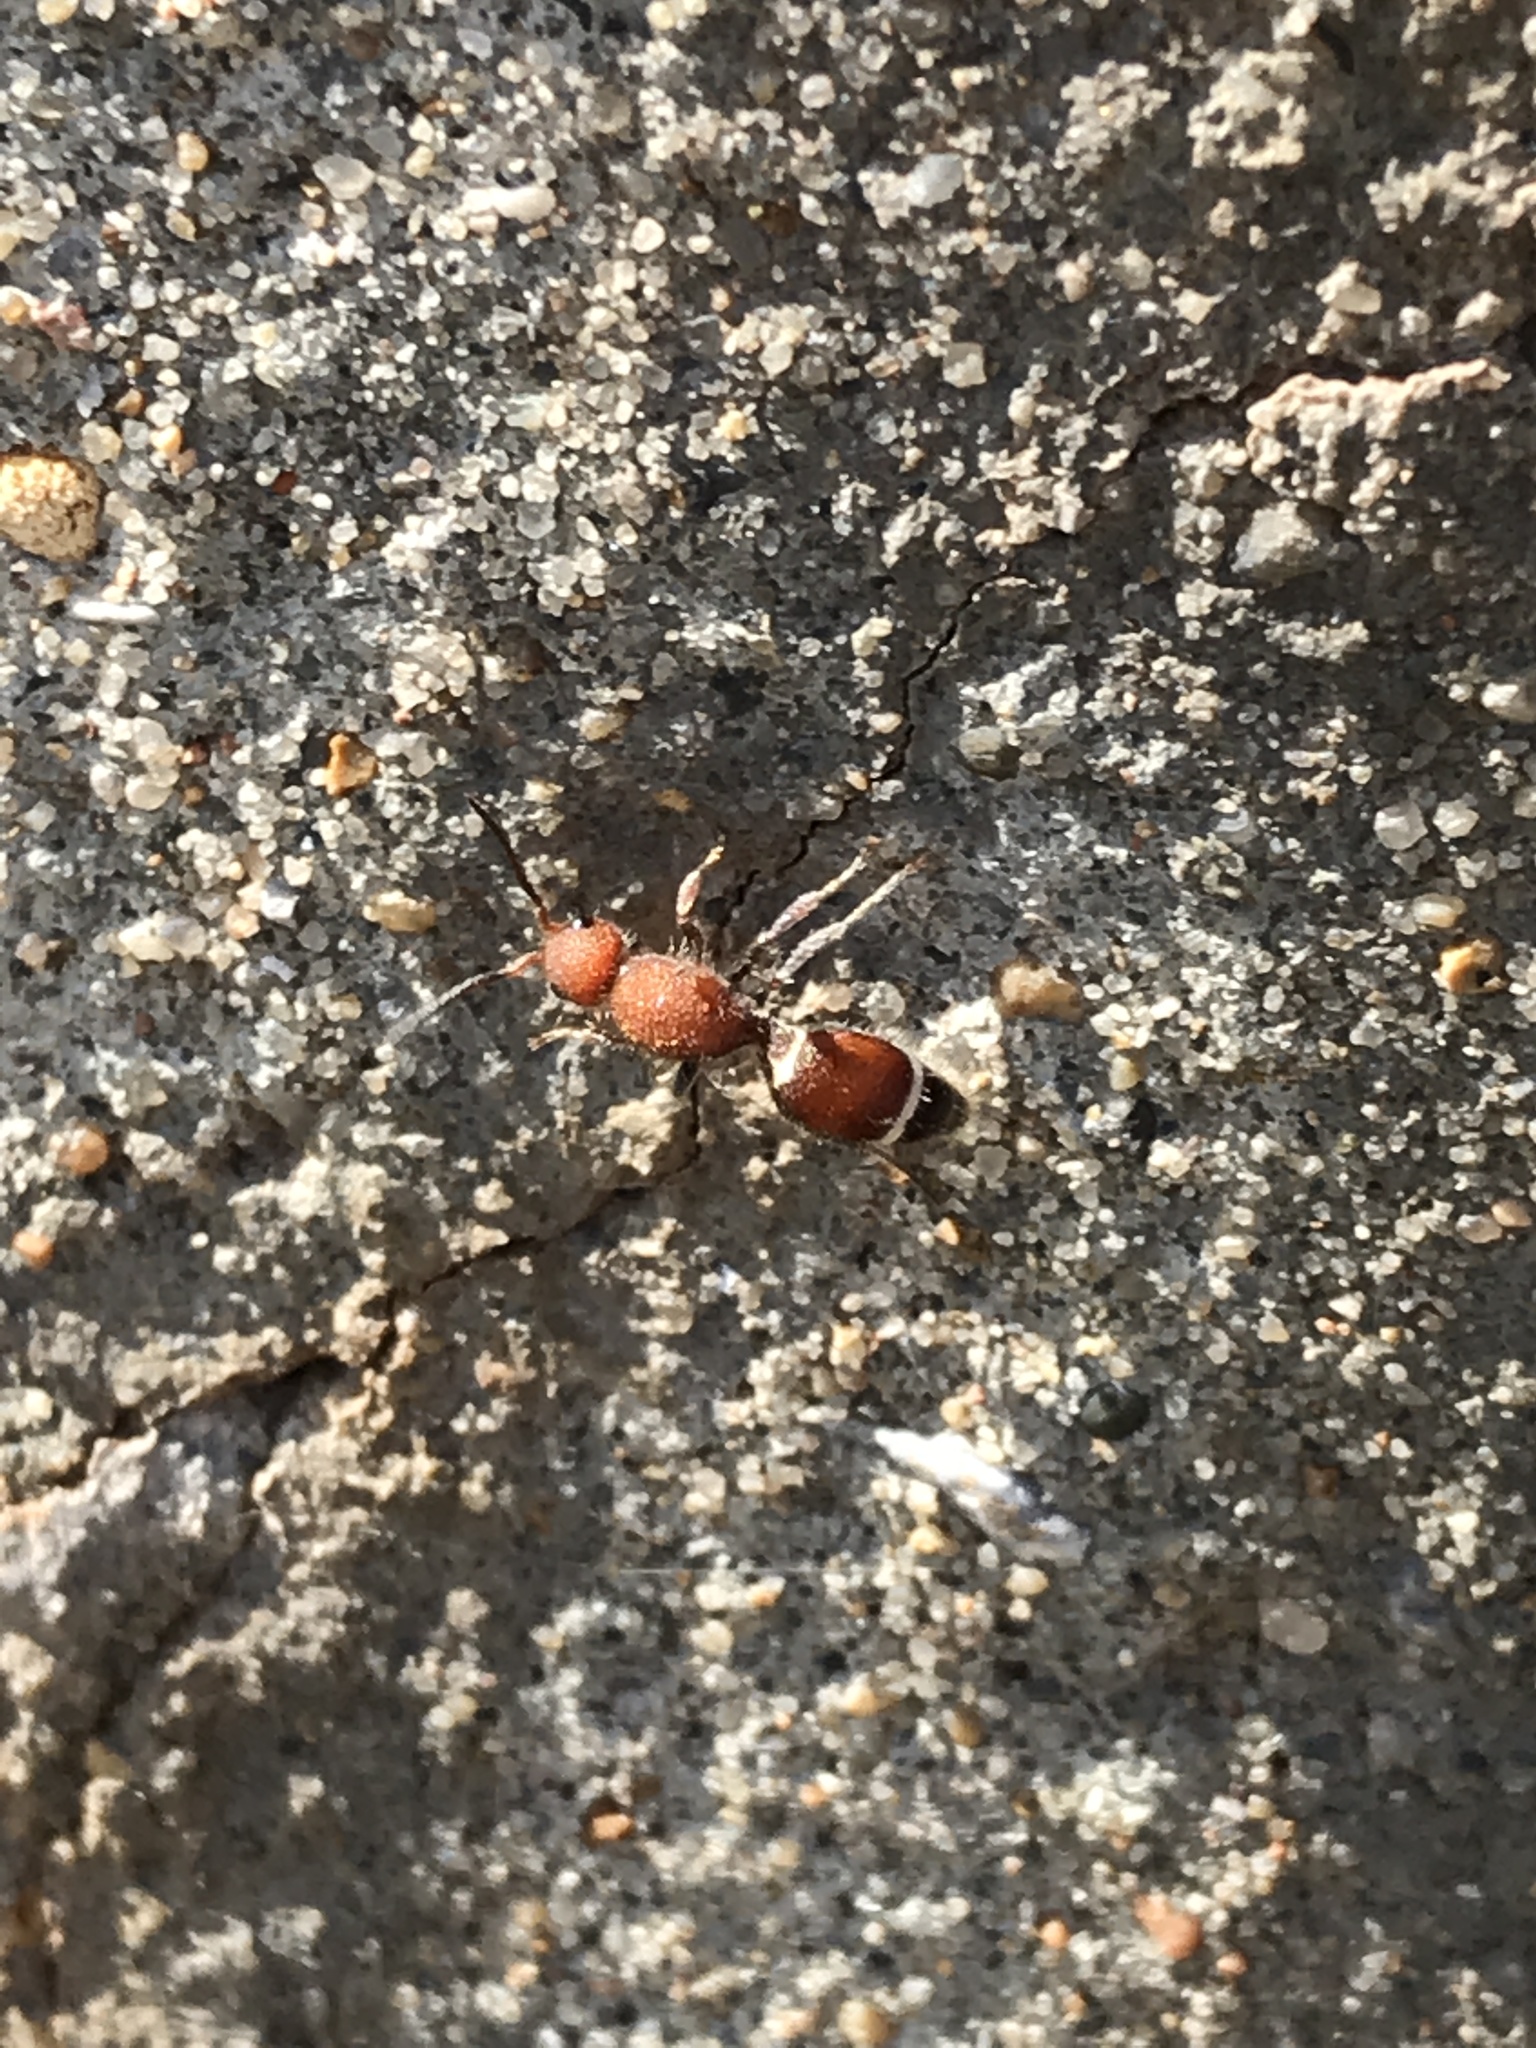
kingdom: Animalia
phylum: Arthropoda
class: Insecta
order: Hymenoptera
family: Mutillidae
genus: Sphaeropthalma
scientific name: Sphaeropthalma
